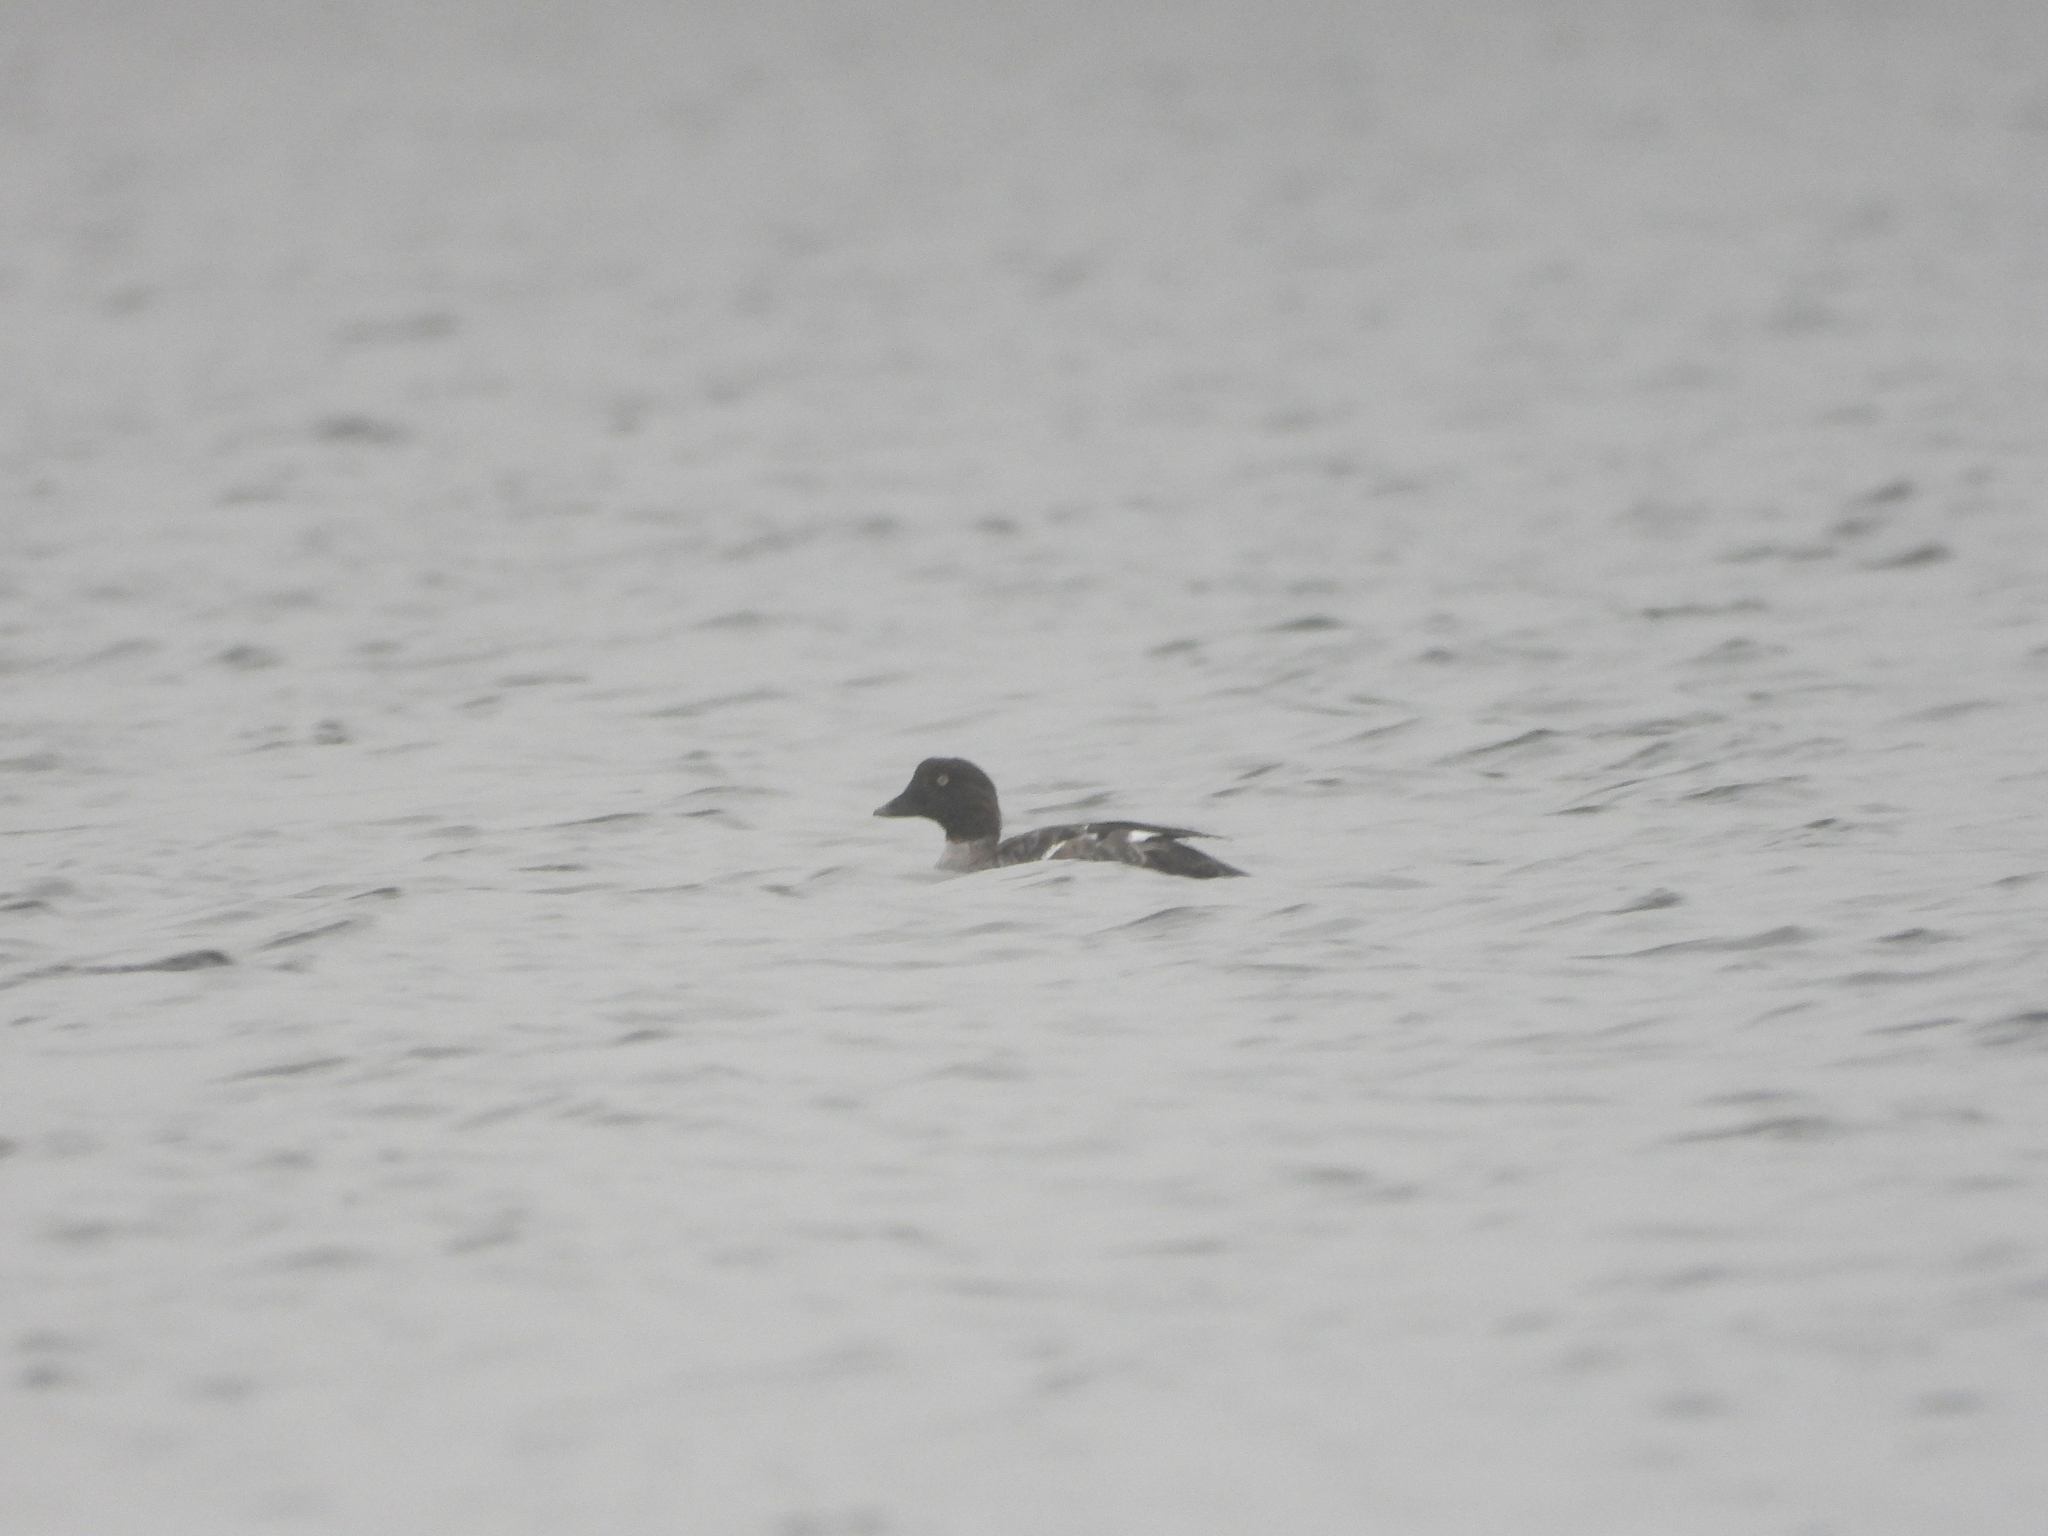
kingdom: Animalia
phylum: Chordata
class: Aves
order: Anseriformes
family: Anatidae
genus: Bucephala
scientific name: Bucephala clangula
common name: Common goldeneye
